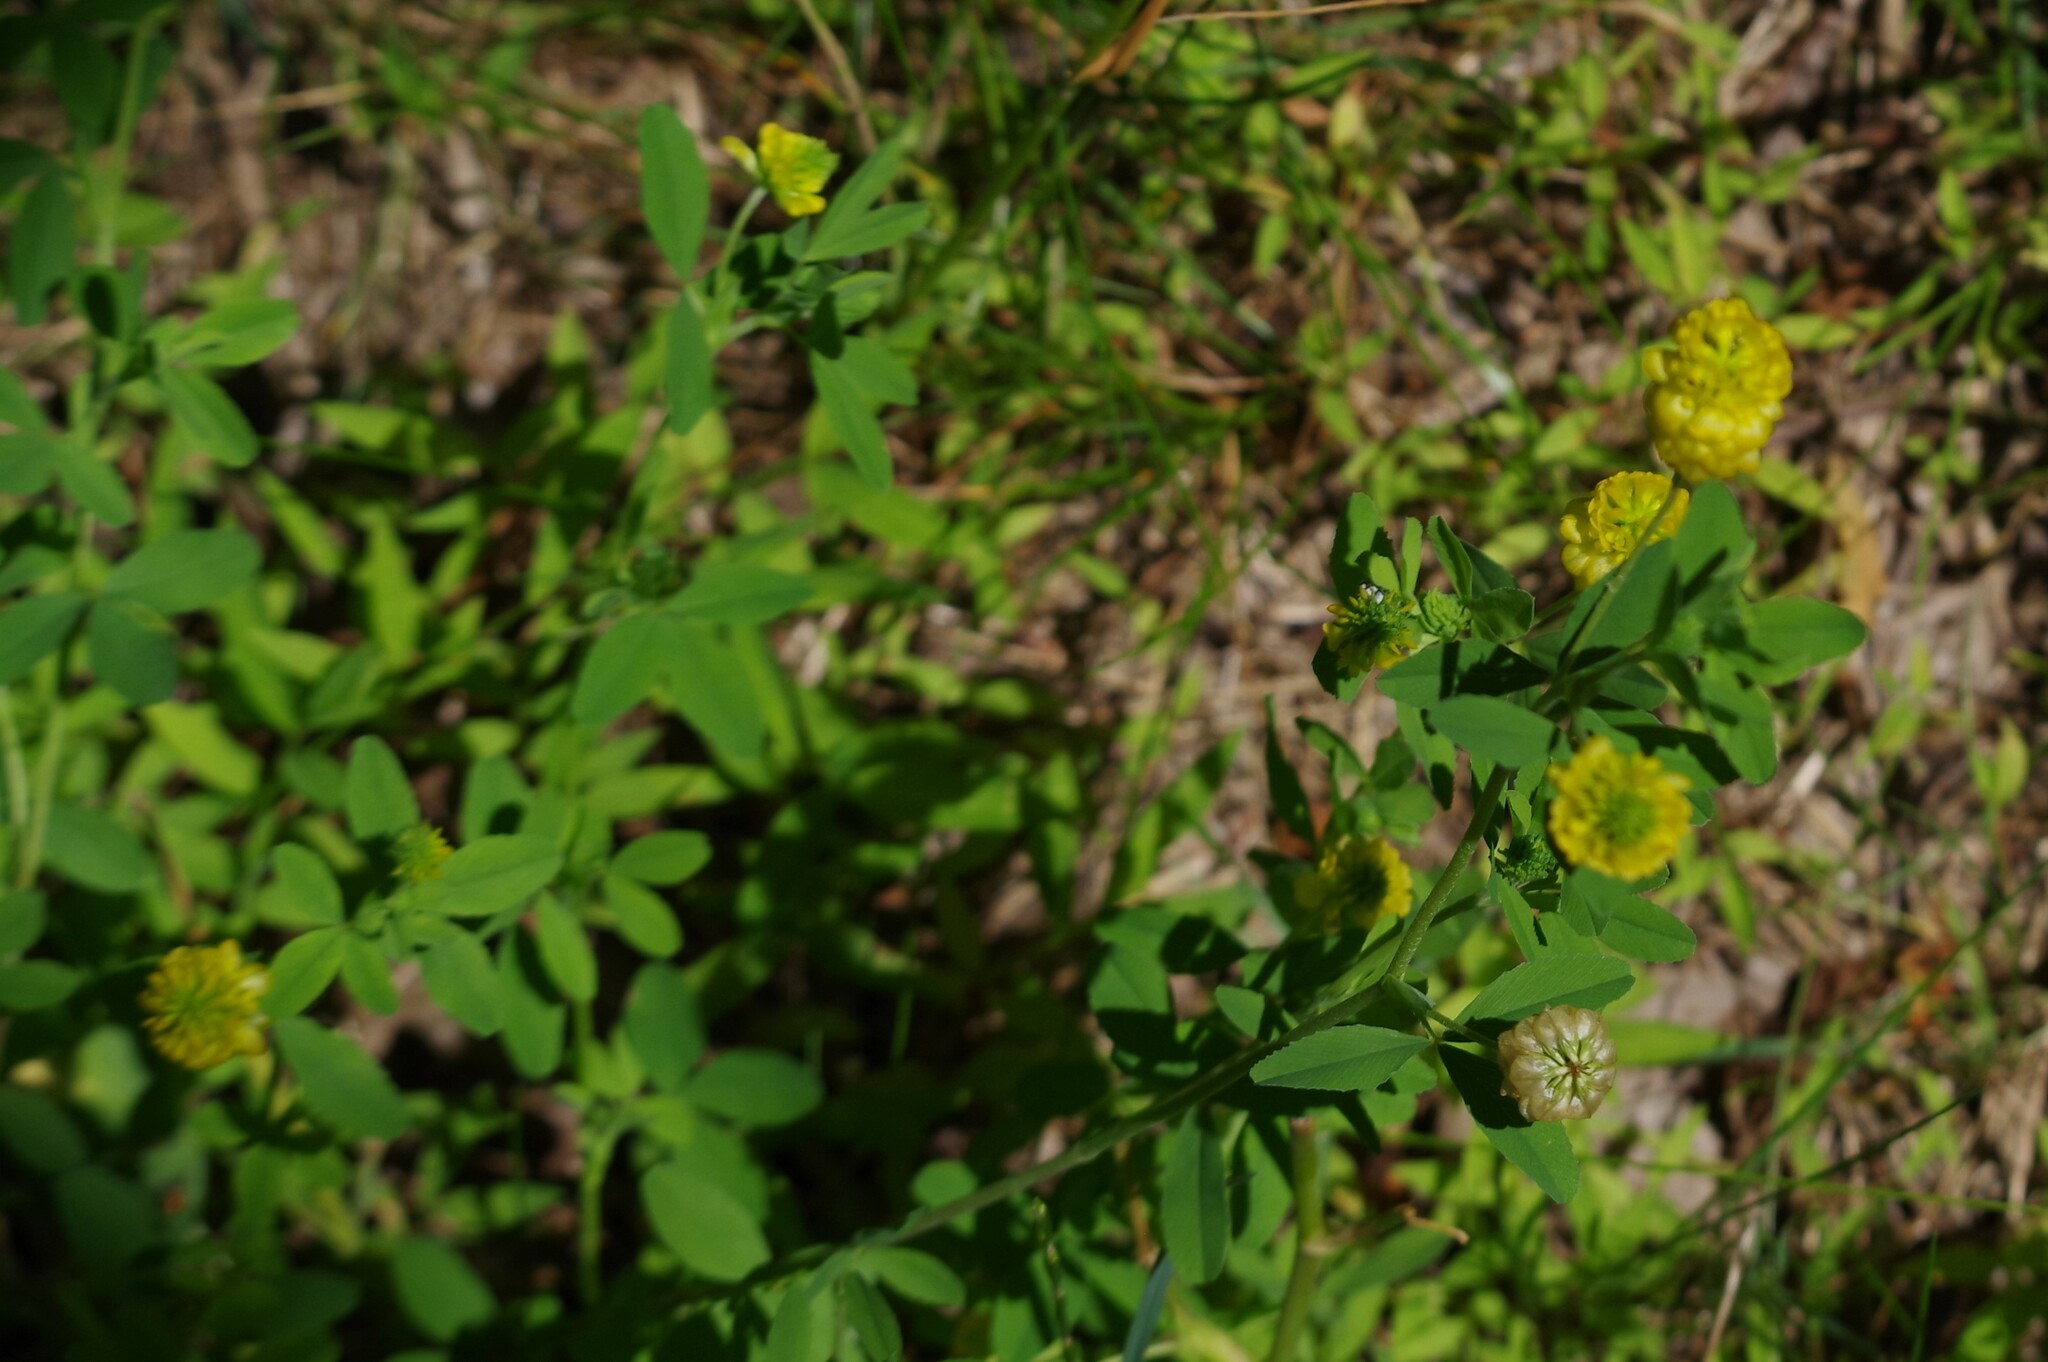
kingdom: Plantae
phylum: Tracheophyta
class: Magnoliopsida
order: Fabales
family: Fabaceae
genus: Trifolium
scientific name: Trifolium aureum
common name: Golden clover
